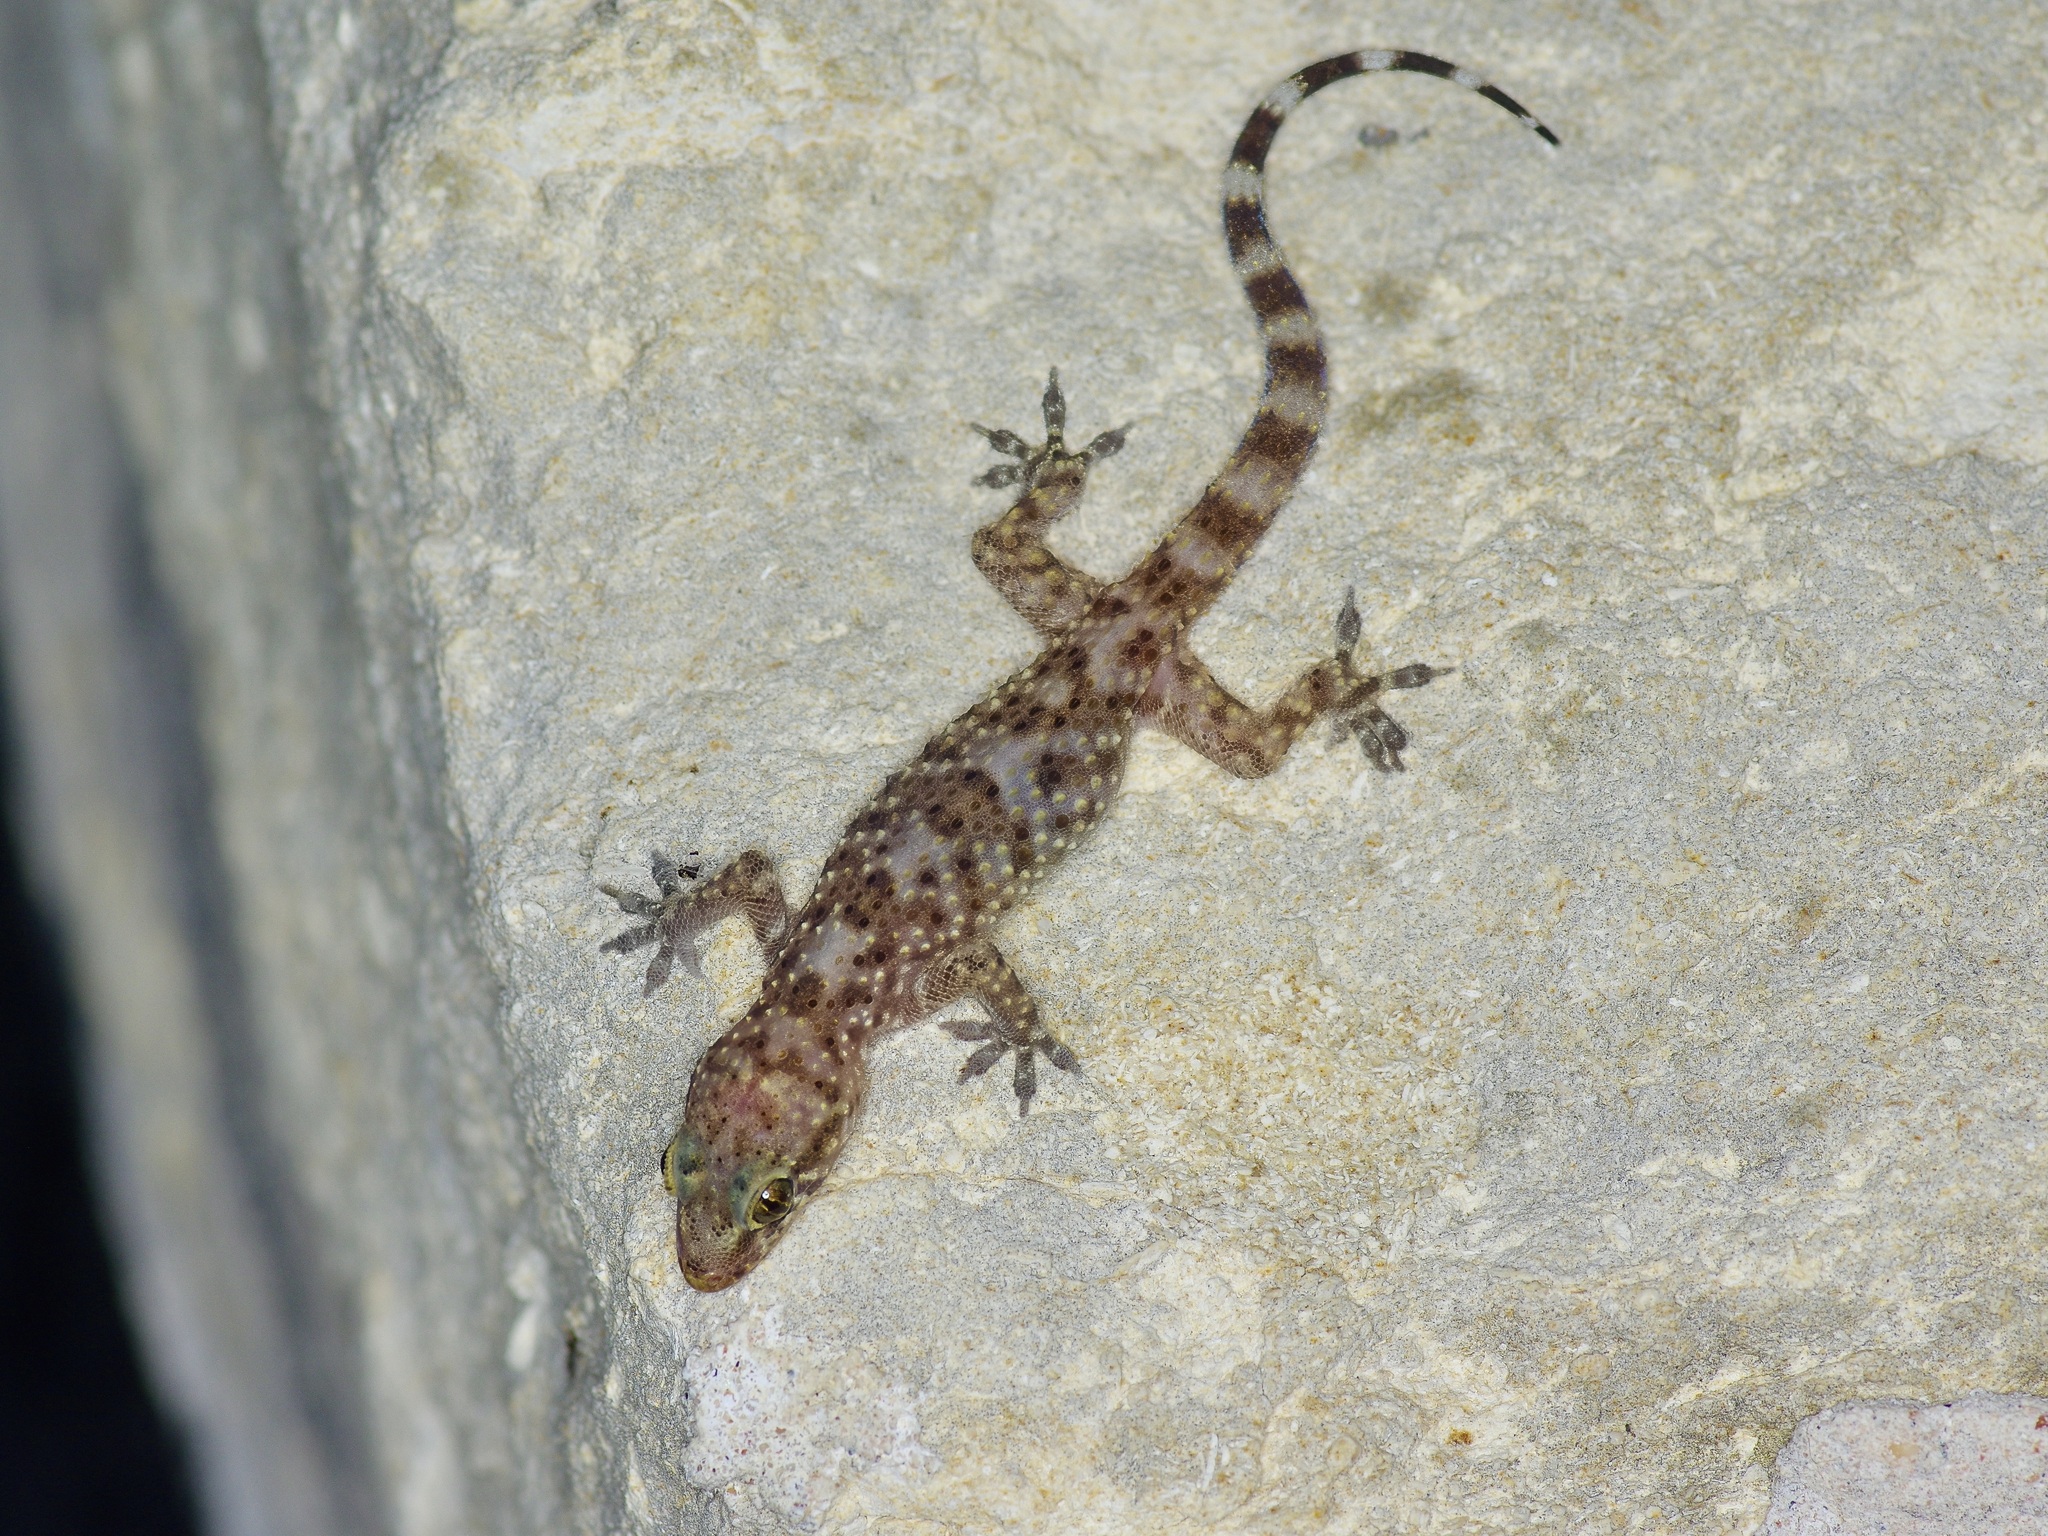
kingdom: Animalia
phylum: Chordata
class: Squamata
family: Gekkonidae
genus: Hemidactylus
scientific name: Hemidactylus turcicus
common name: Turkish gecko
